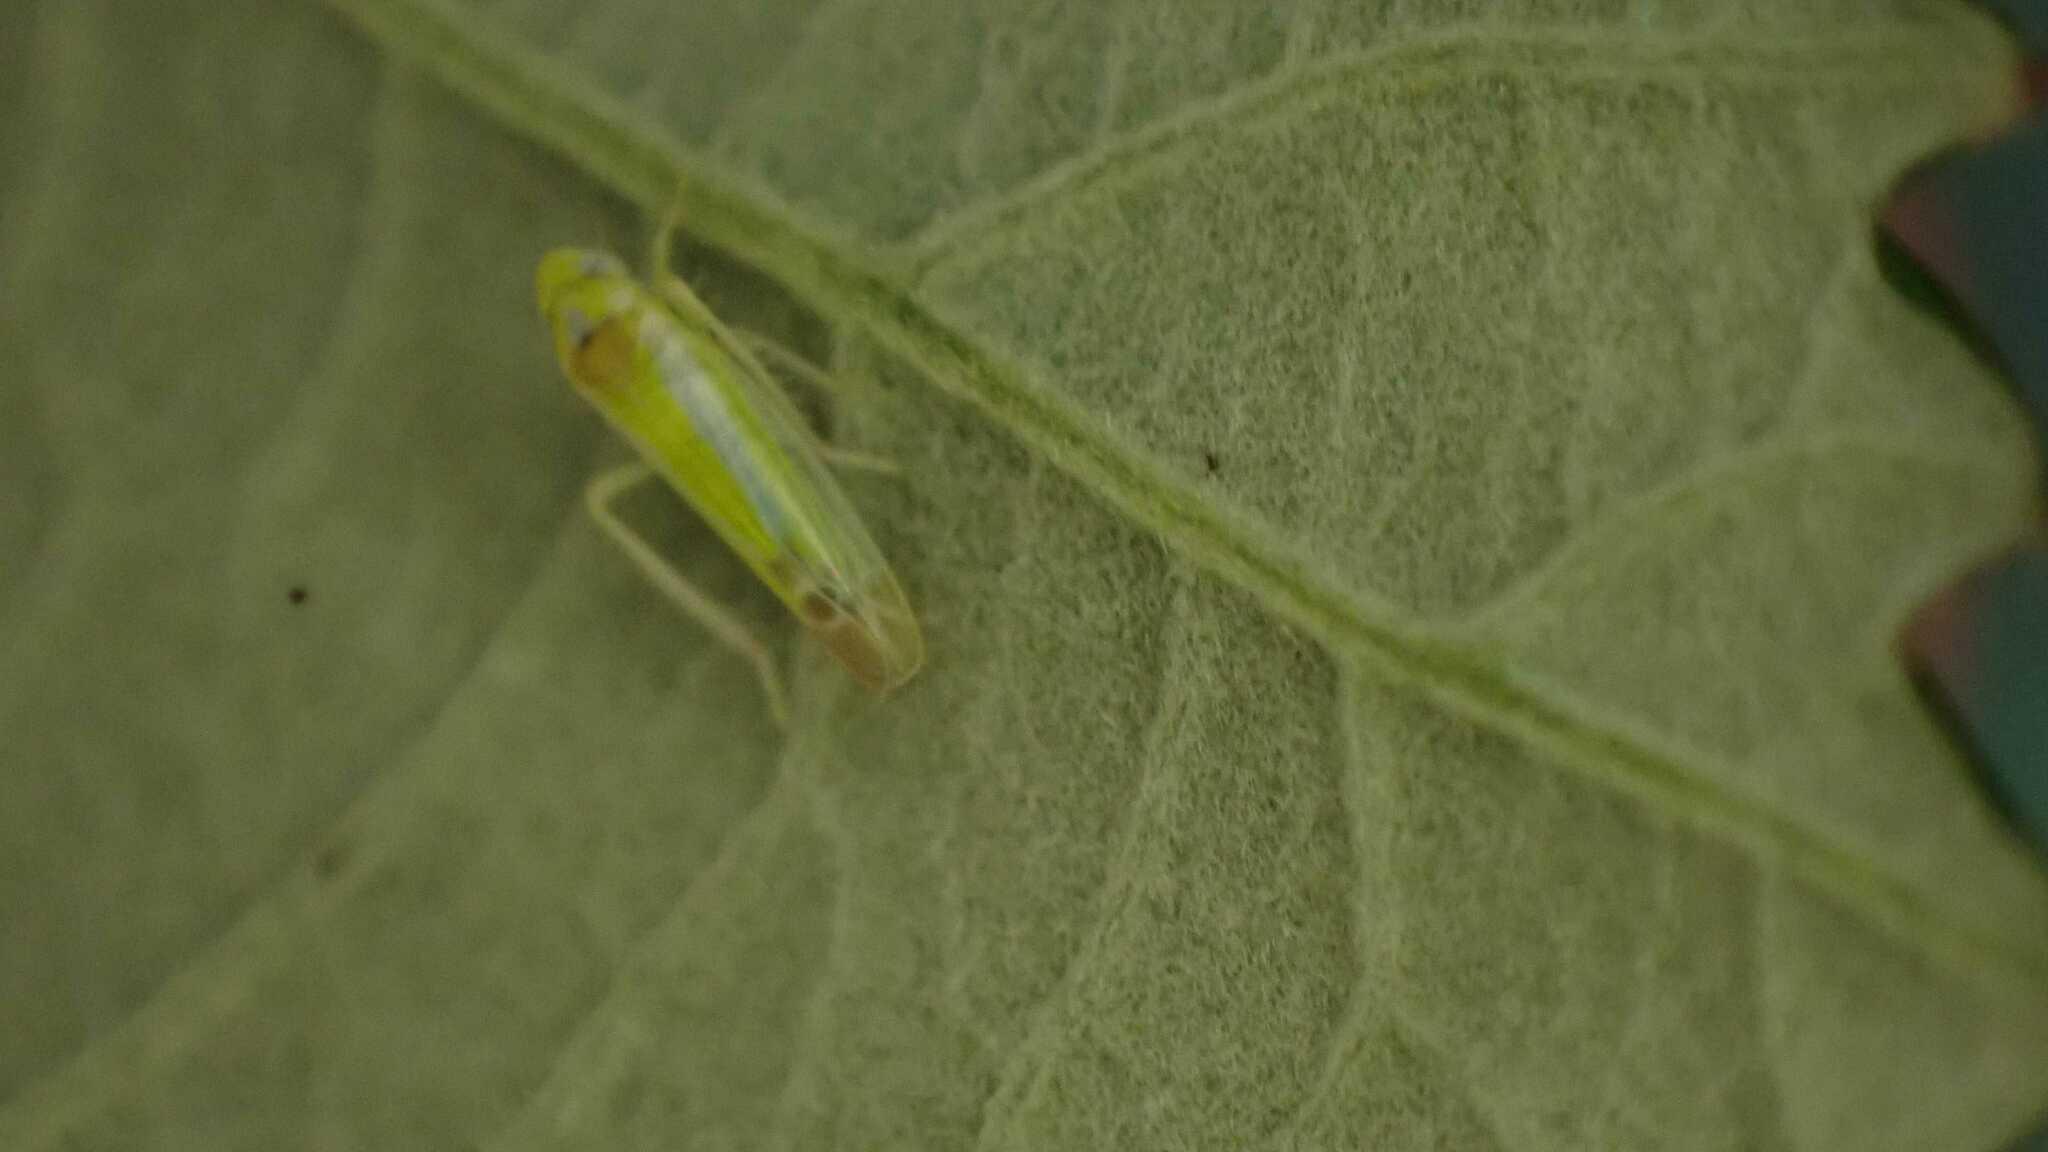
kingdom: Animalia
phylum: Arthropoda
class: Insecta
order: Hemiptera
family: Cicadellidae
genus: Lindbergina
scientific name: Lindbergina aurovittata
